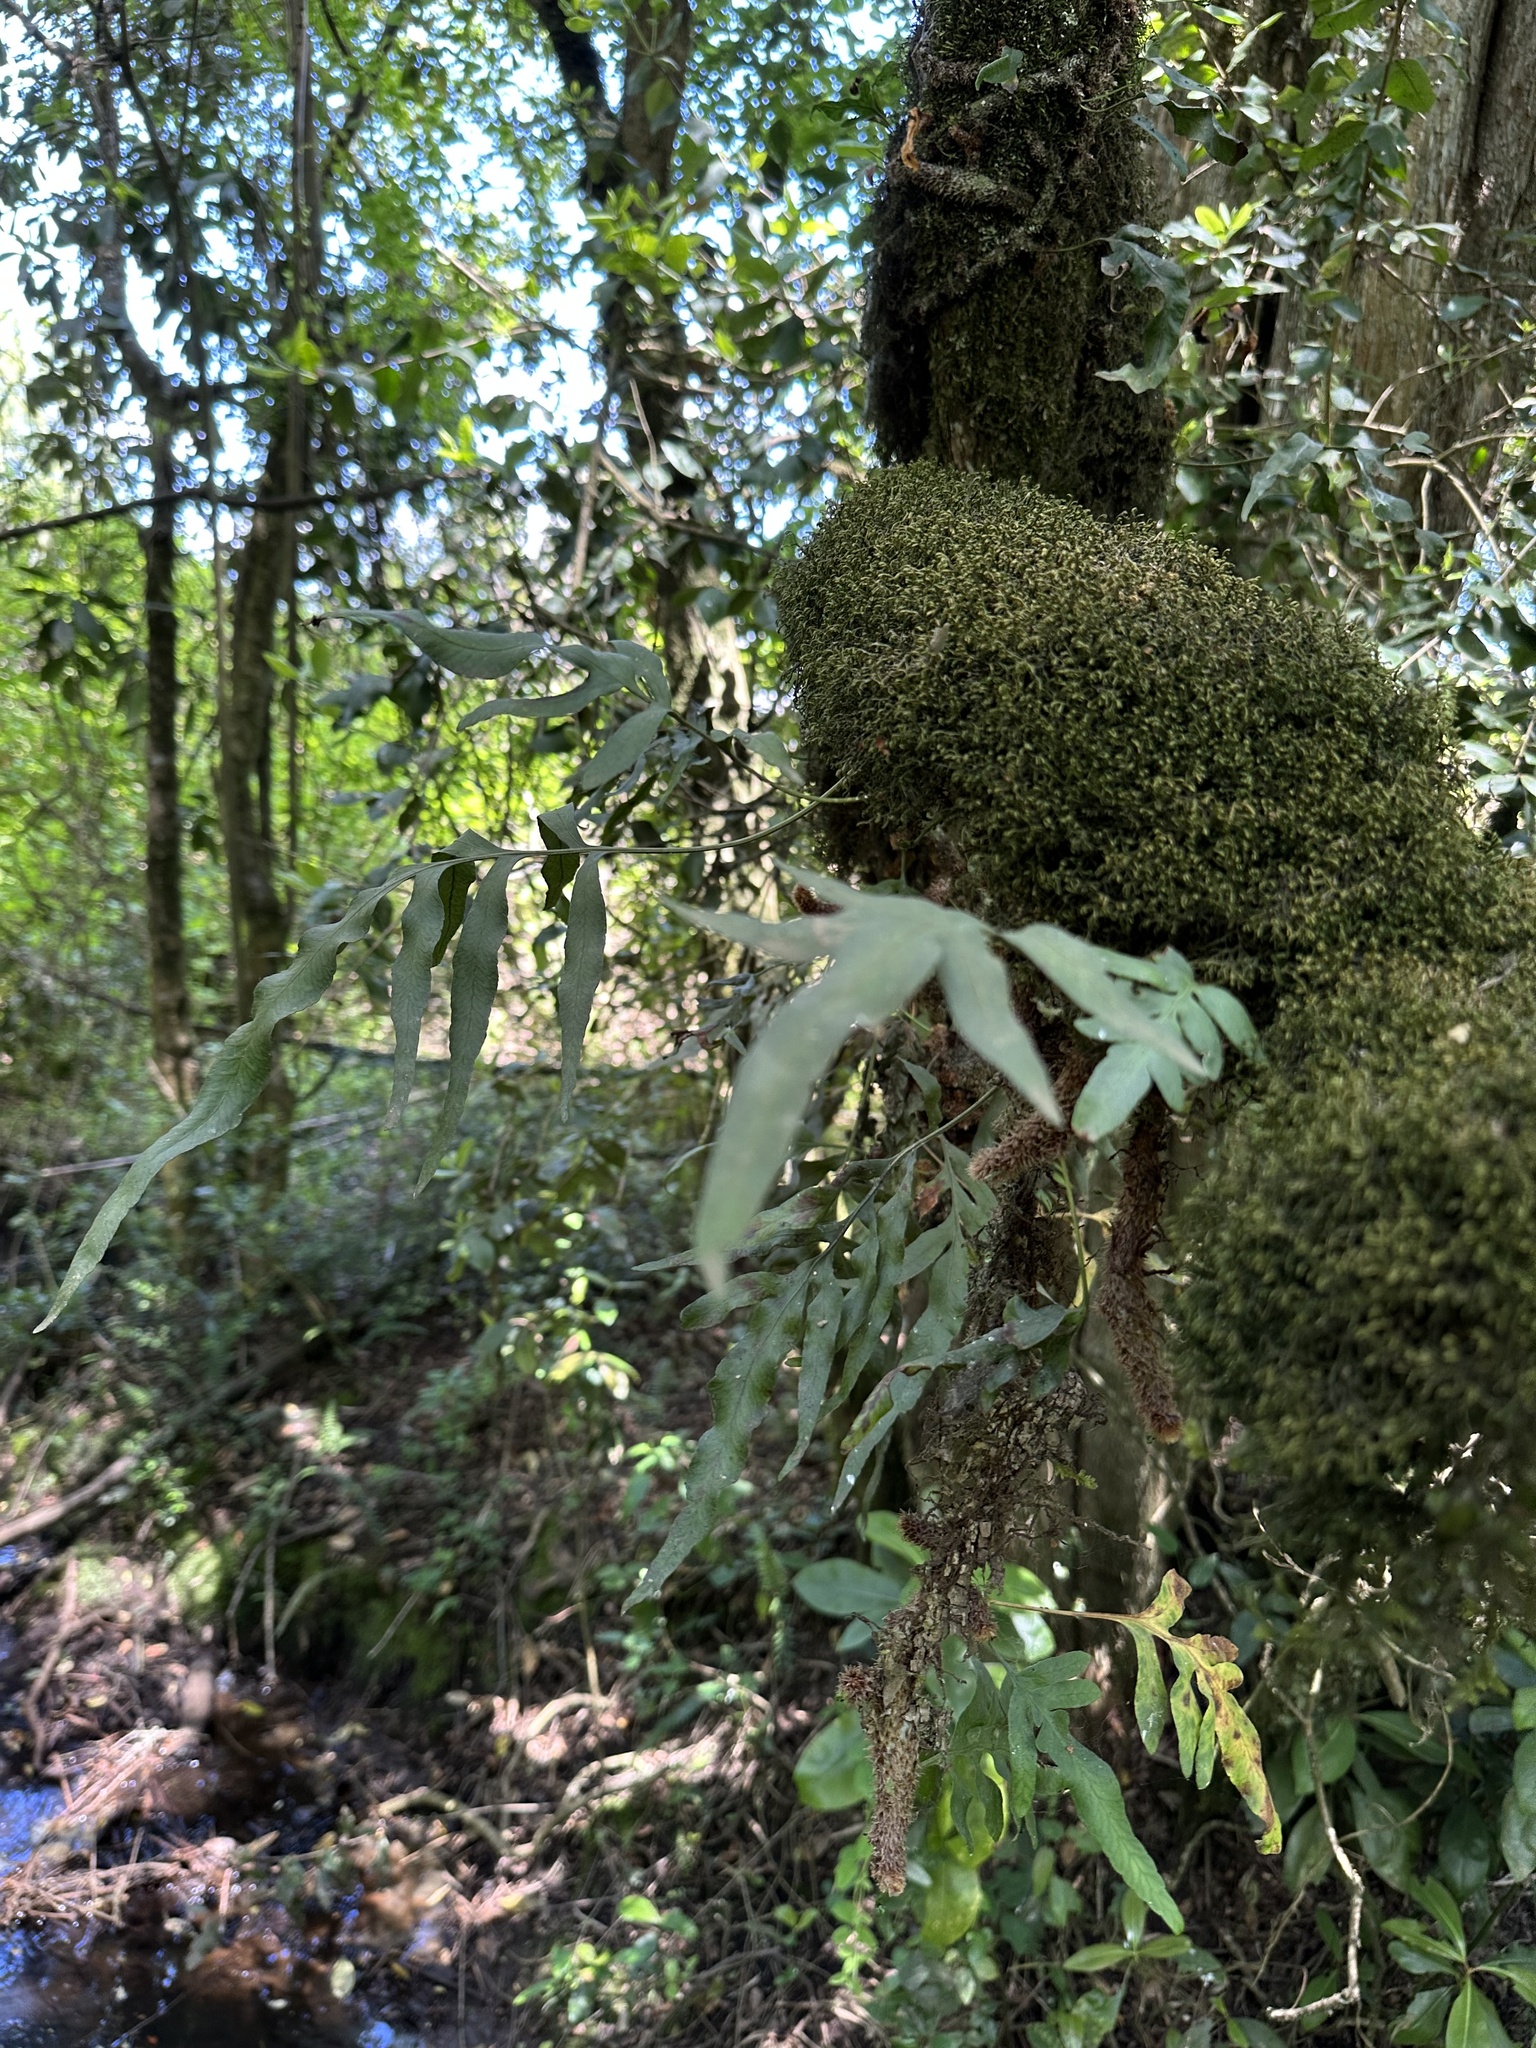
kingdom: Plantae
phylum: Tracheophyta
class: Polypodiopsida
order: Polypodiales
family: Polypodiaceae
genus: Synammia
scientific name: Synammia feuillei
